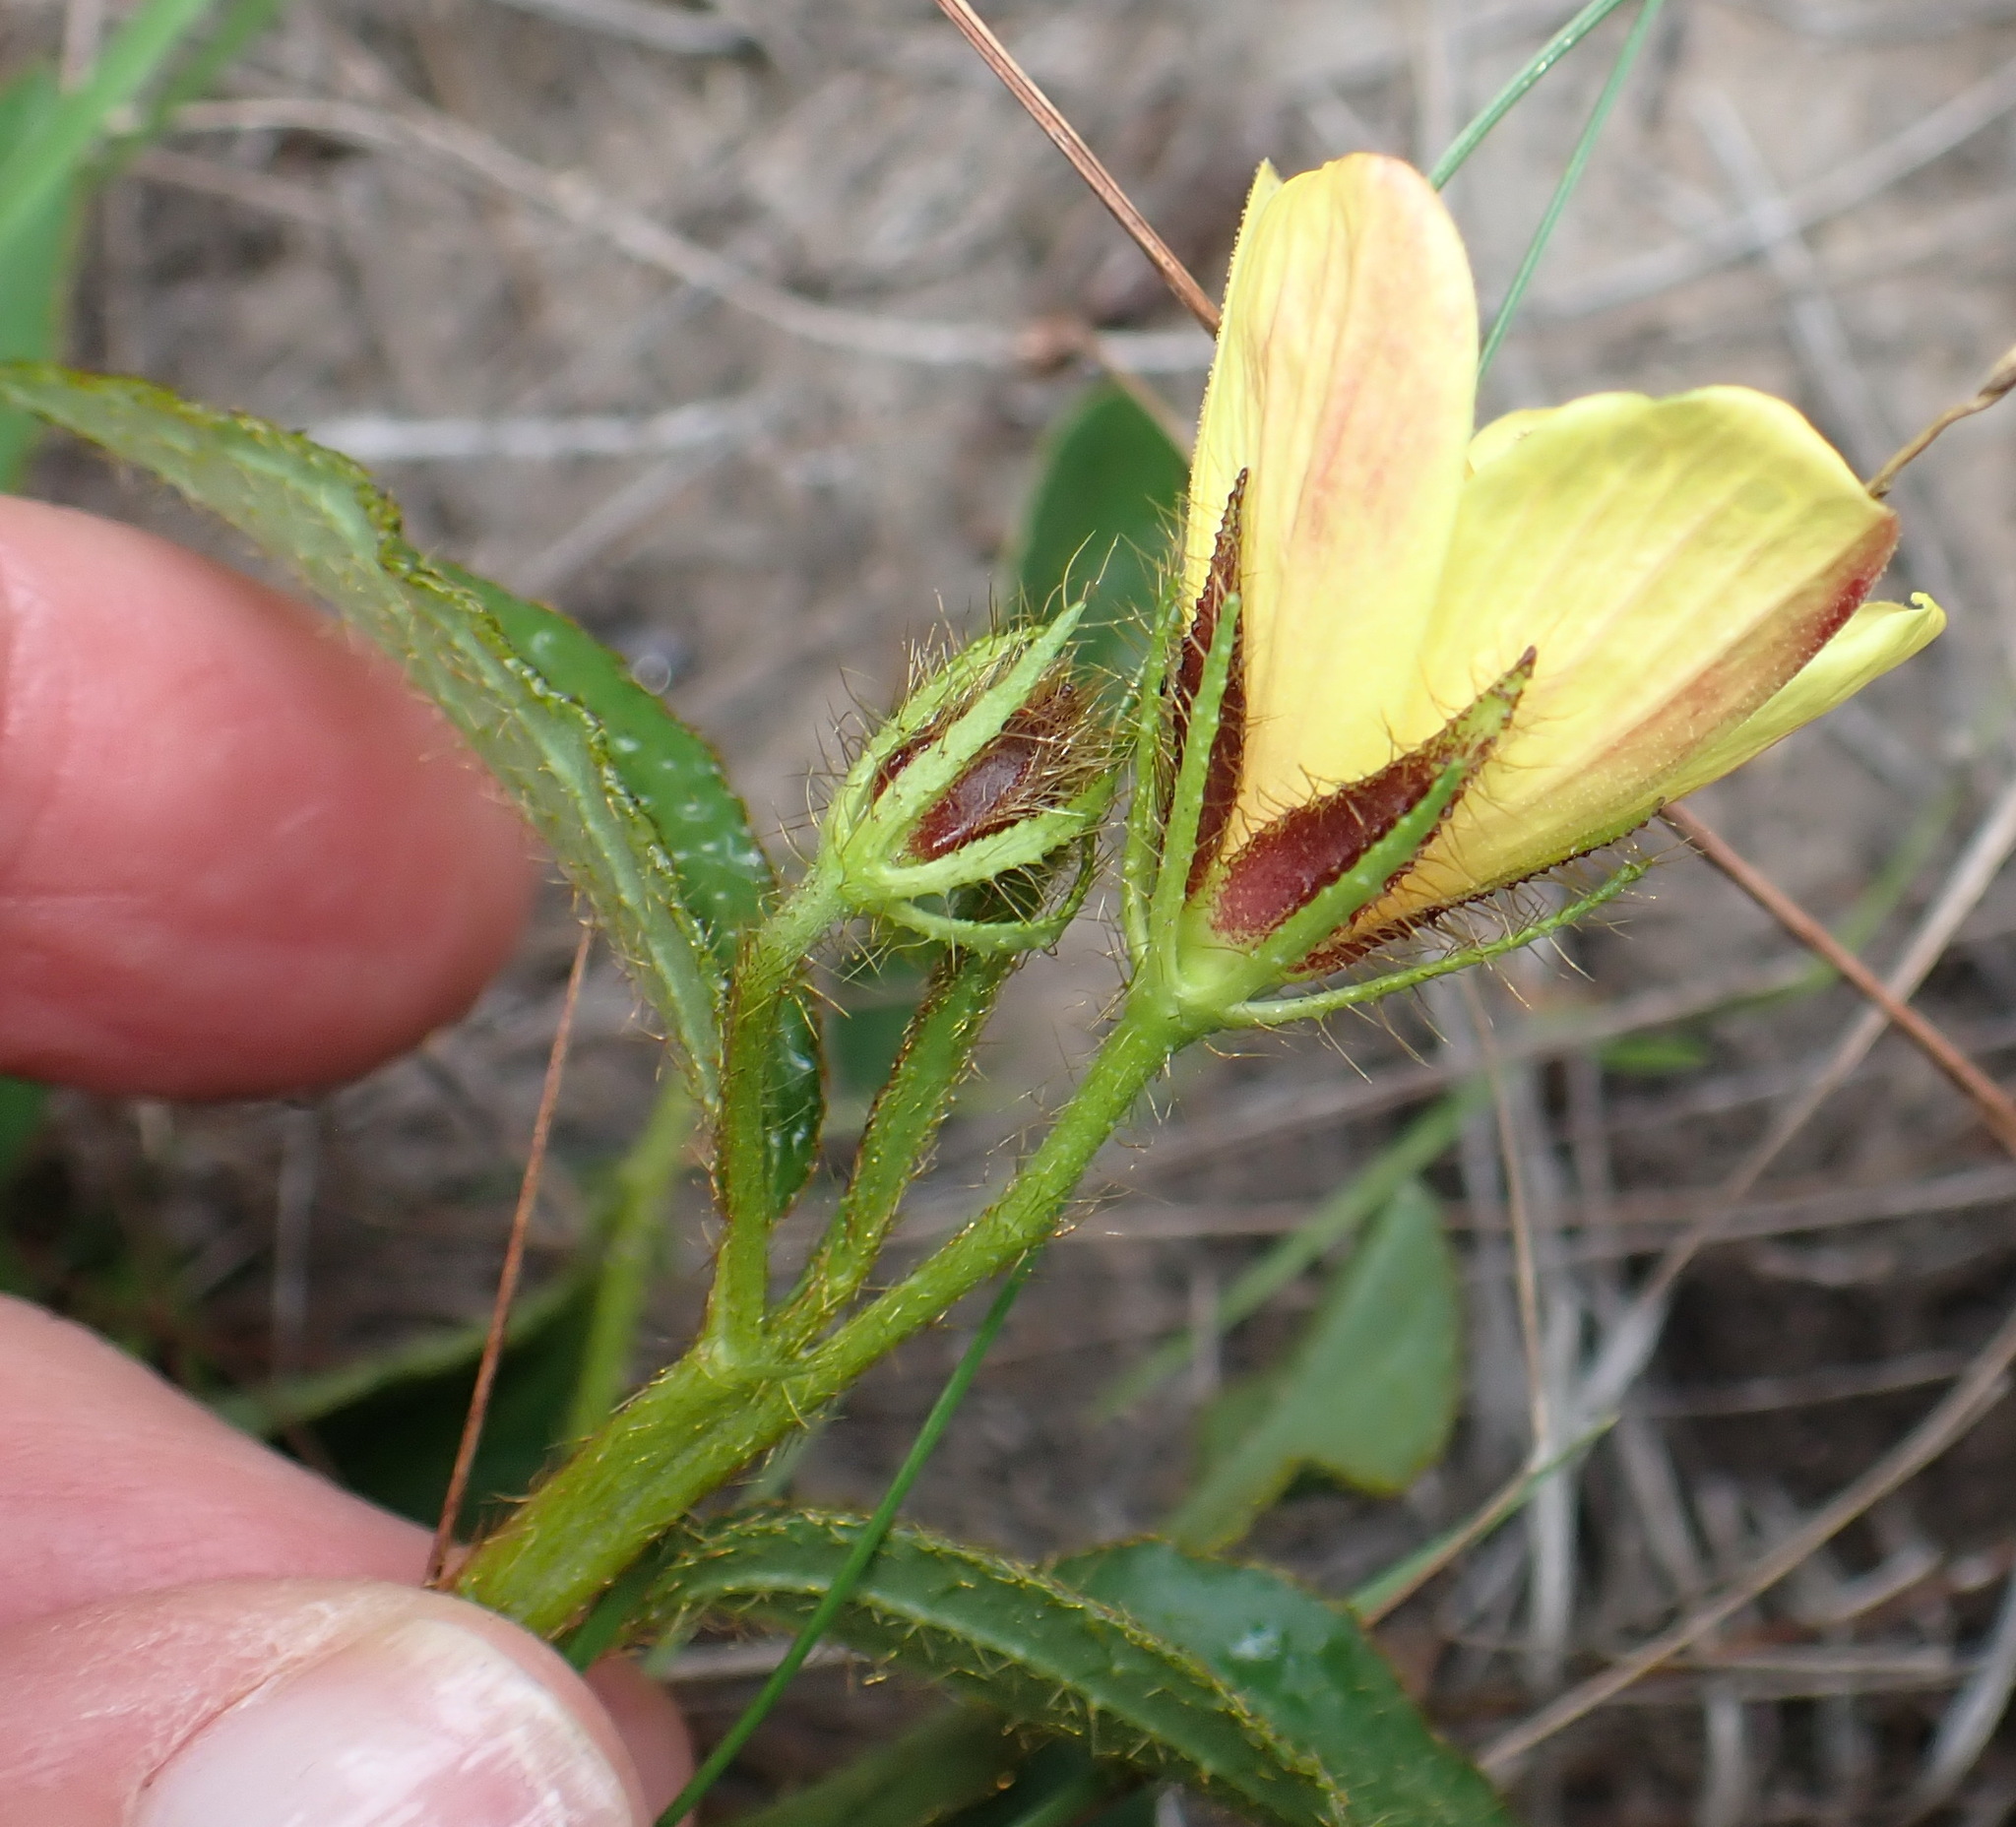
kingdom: Plantae
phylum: Tracheophyta
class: Magnoliopsida
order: Malvales
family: Malvaceae
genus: Hibiscus
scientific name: Hibiscus aethiopicus
